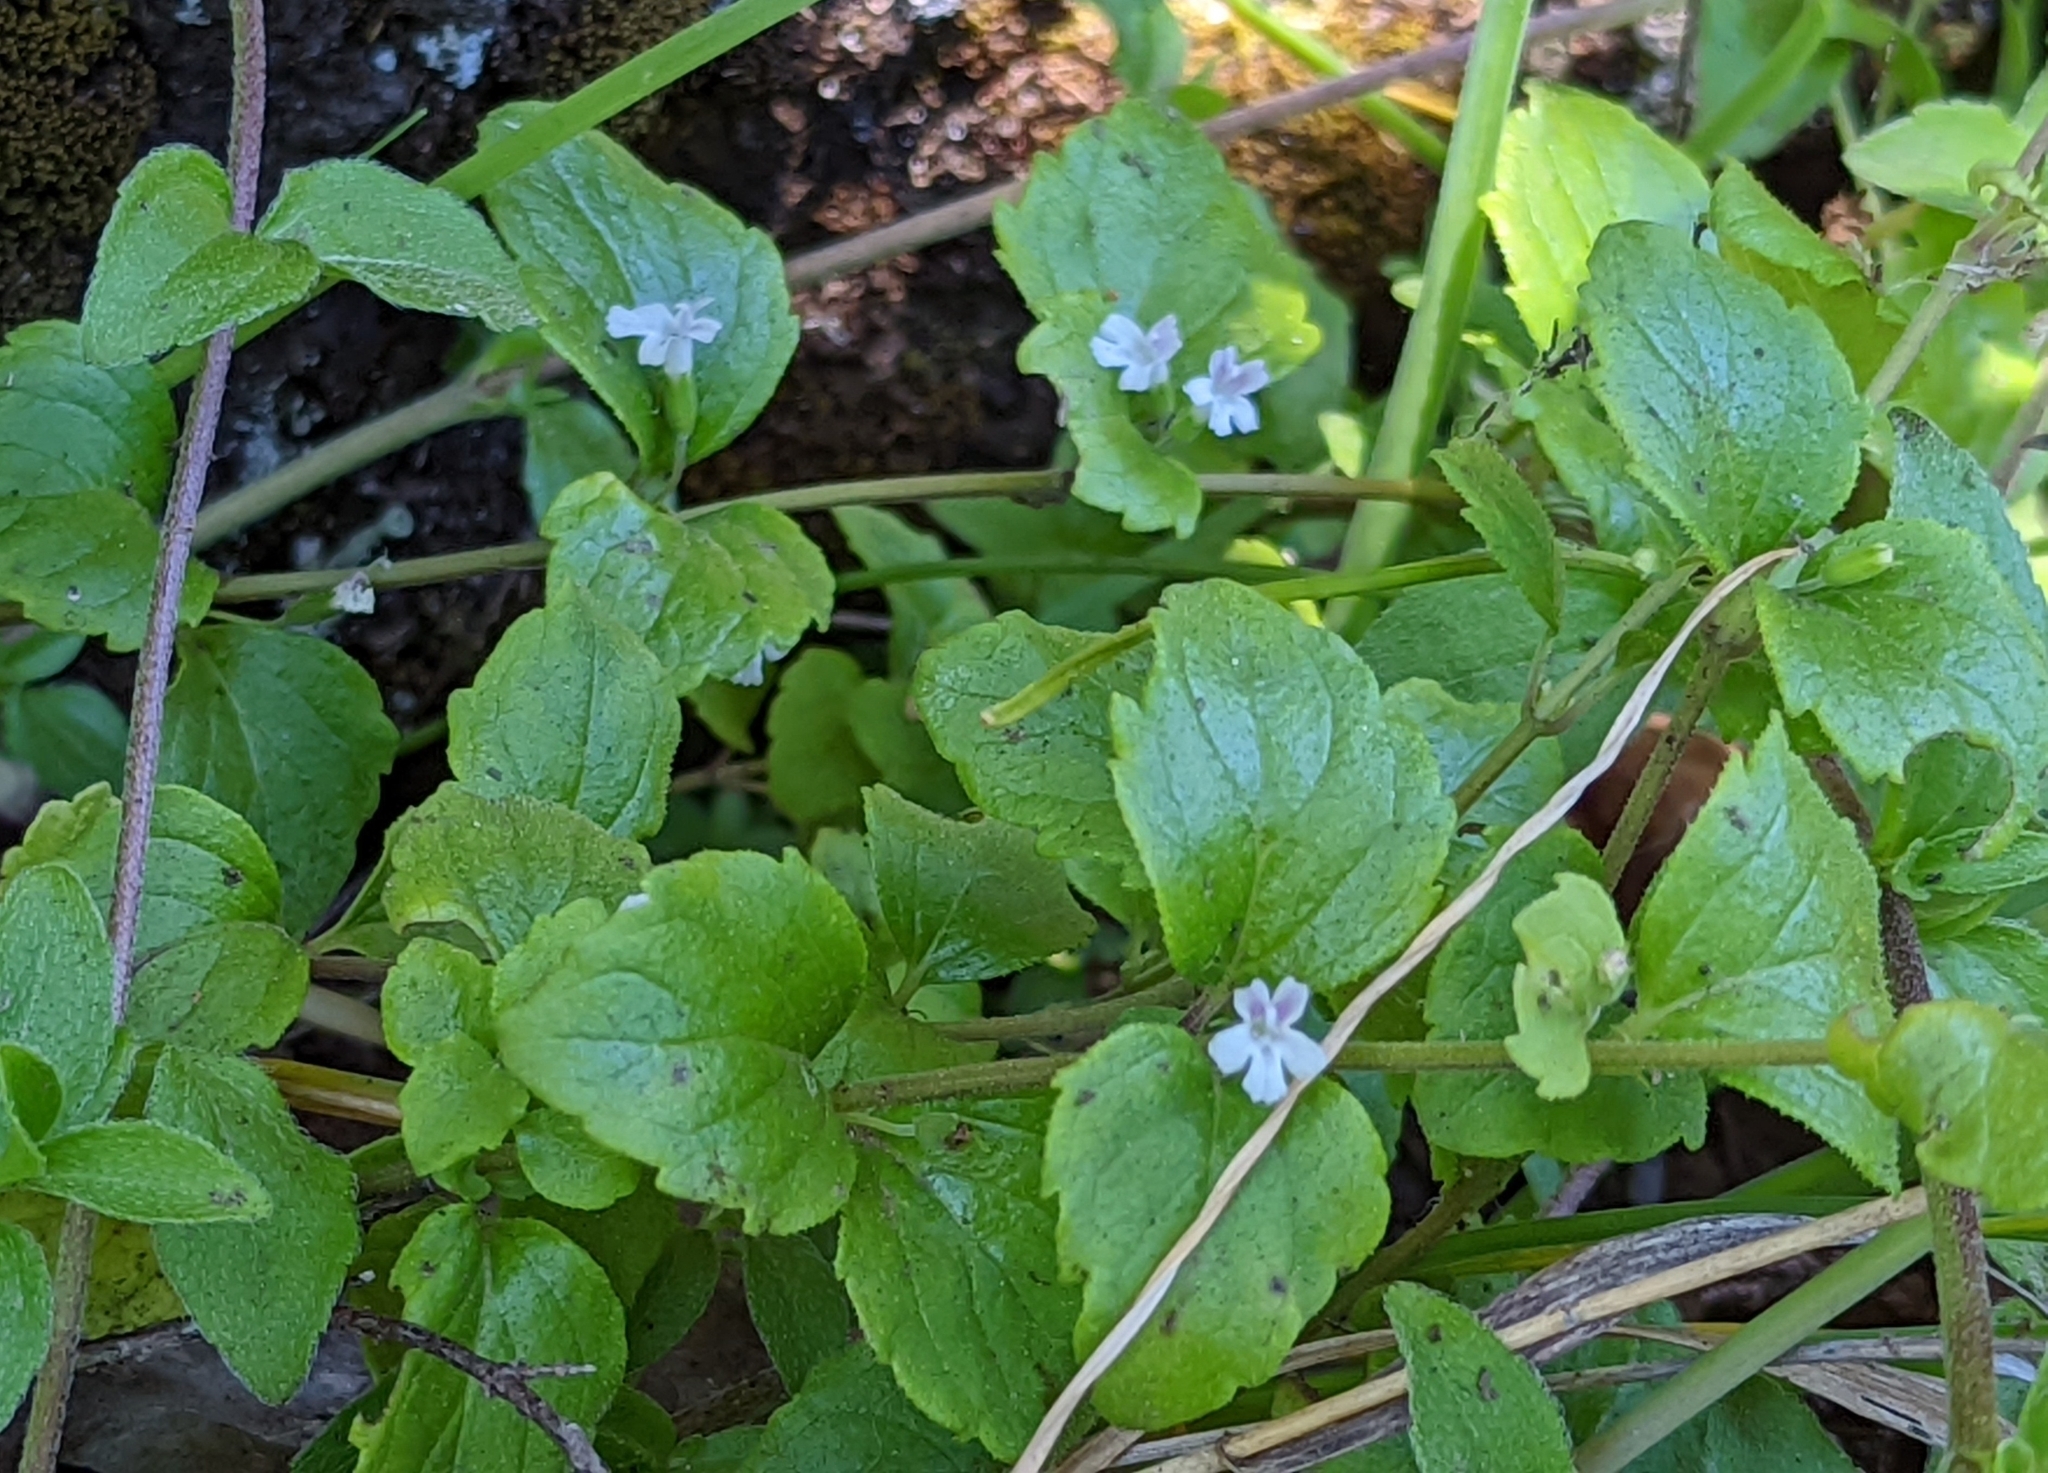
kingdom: Plantae
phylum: Tracheophyta
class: Magnoliopsida
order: Lamiales
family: Lamiaceae
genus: Micromeria
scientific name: Micromeria douglasii
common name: Yerba buena
